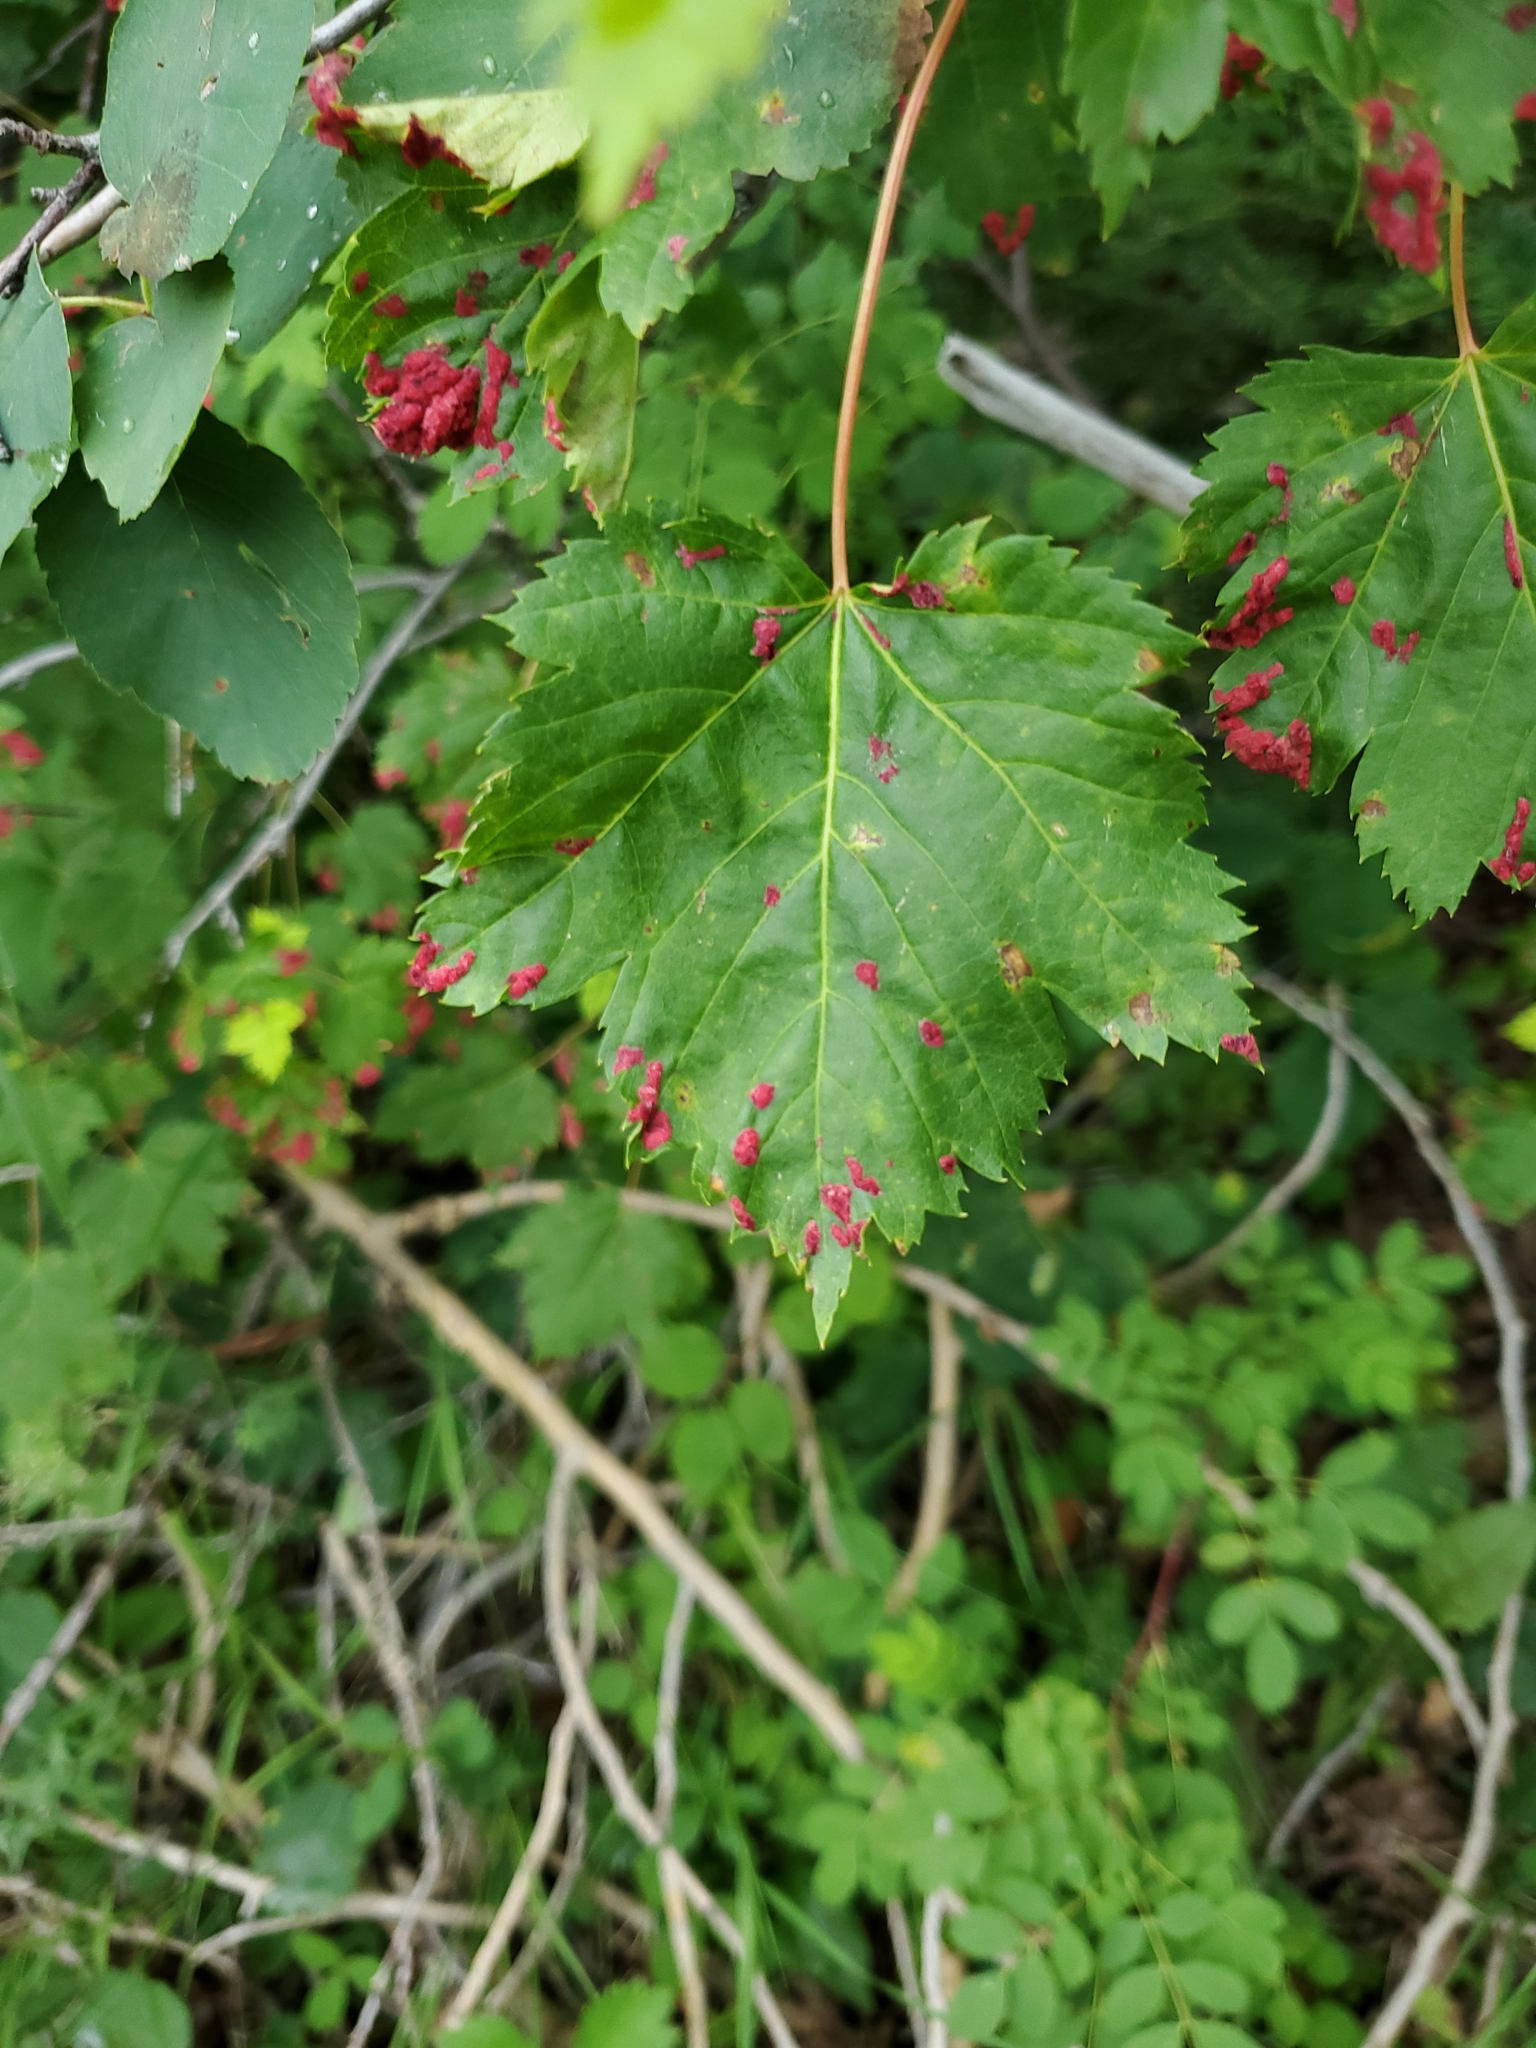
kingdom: Animalia
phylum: Arthropoda
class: Arachnida
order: Trombidiformes
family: Eriophyidae
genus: Aceria
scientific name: Aceria
